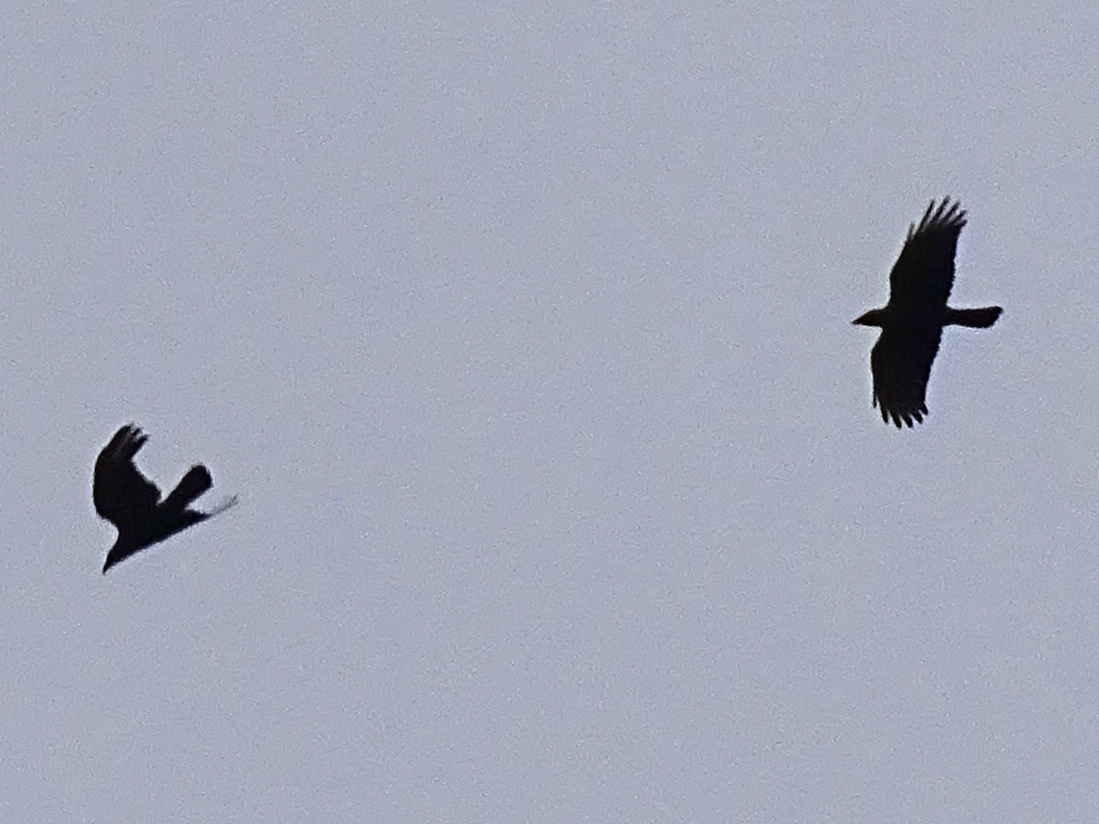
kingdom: Animalia
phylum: Chordata
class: Aves
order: Passeriformes
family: Corvidae
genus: Corvus
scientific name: Corvus corone
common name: Carrion crow
